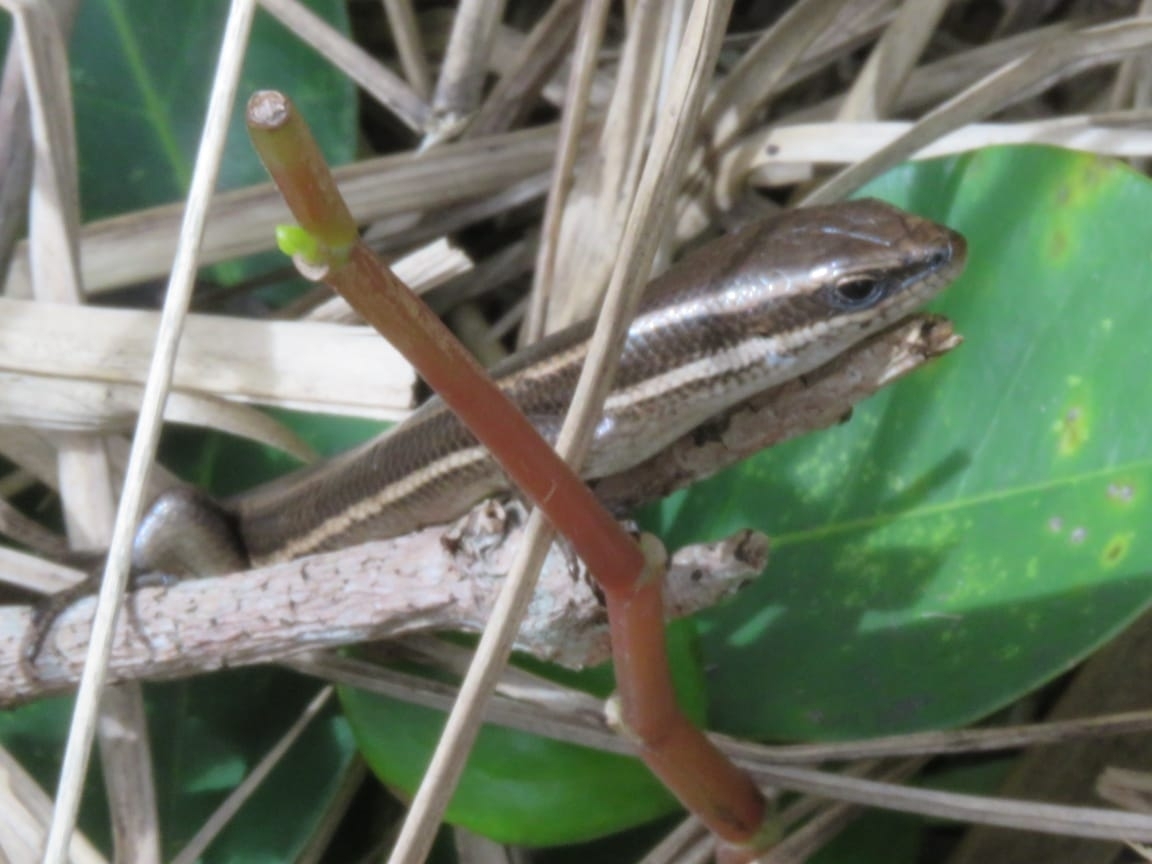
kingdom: Animalia
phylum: Chordata
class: Squamata
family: Scincidae
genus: Aspronema
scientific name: Aspronema dorsivittatum
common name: Paraguay mabuya
